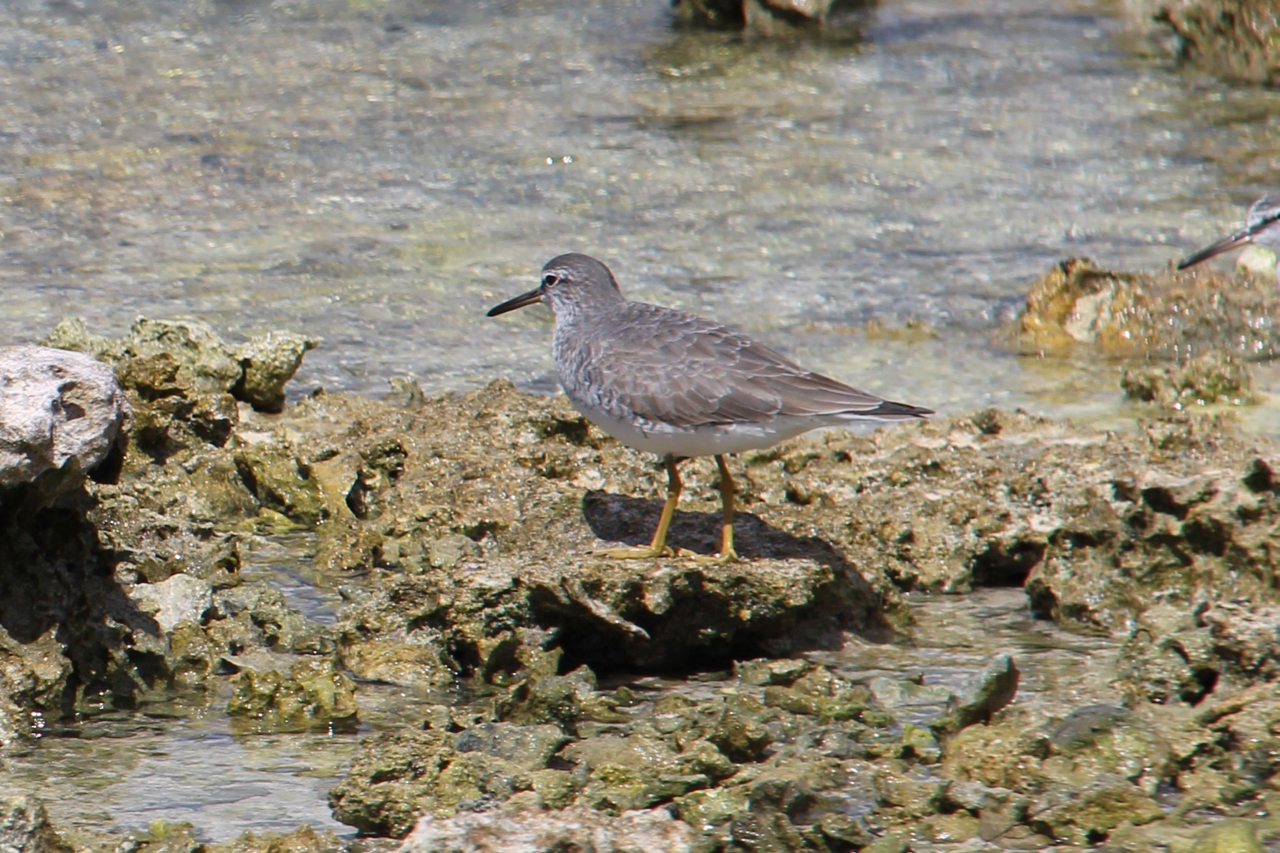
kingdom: Animalia
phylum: Chordata
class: Aves
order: Charadriiformes
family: Scolopacidae
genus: Tringa
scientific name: Tringa brevipes
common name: Grey-tailed tattler
